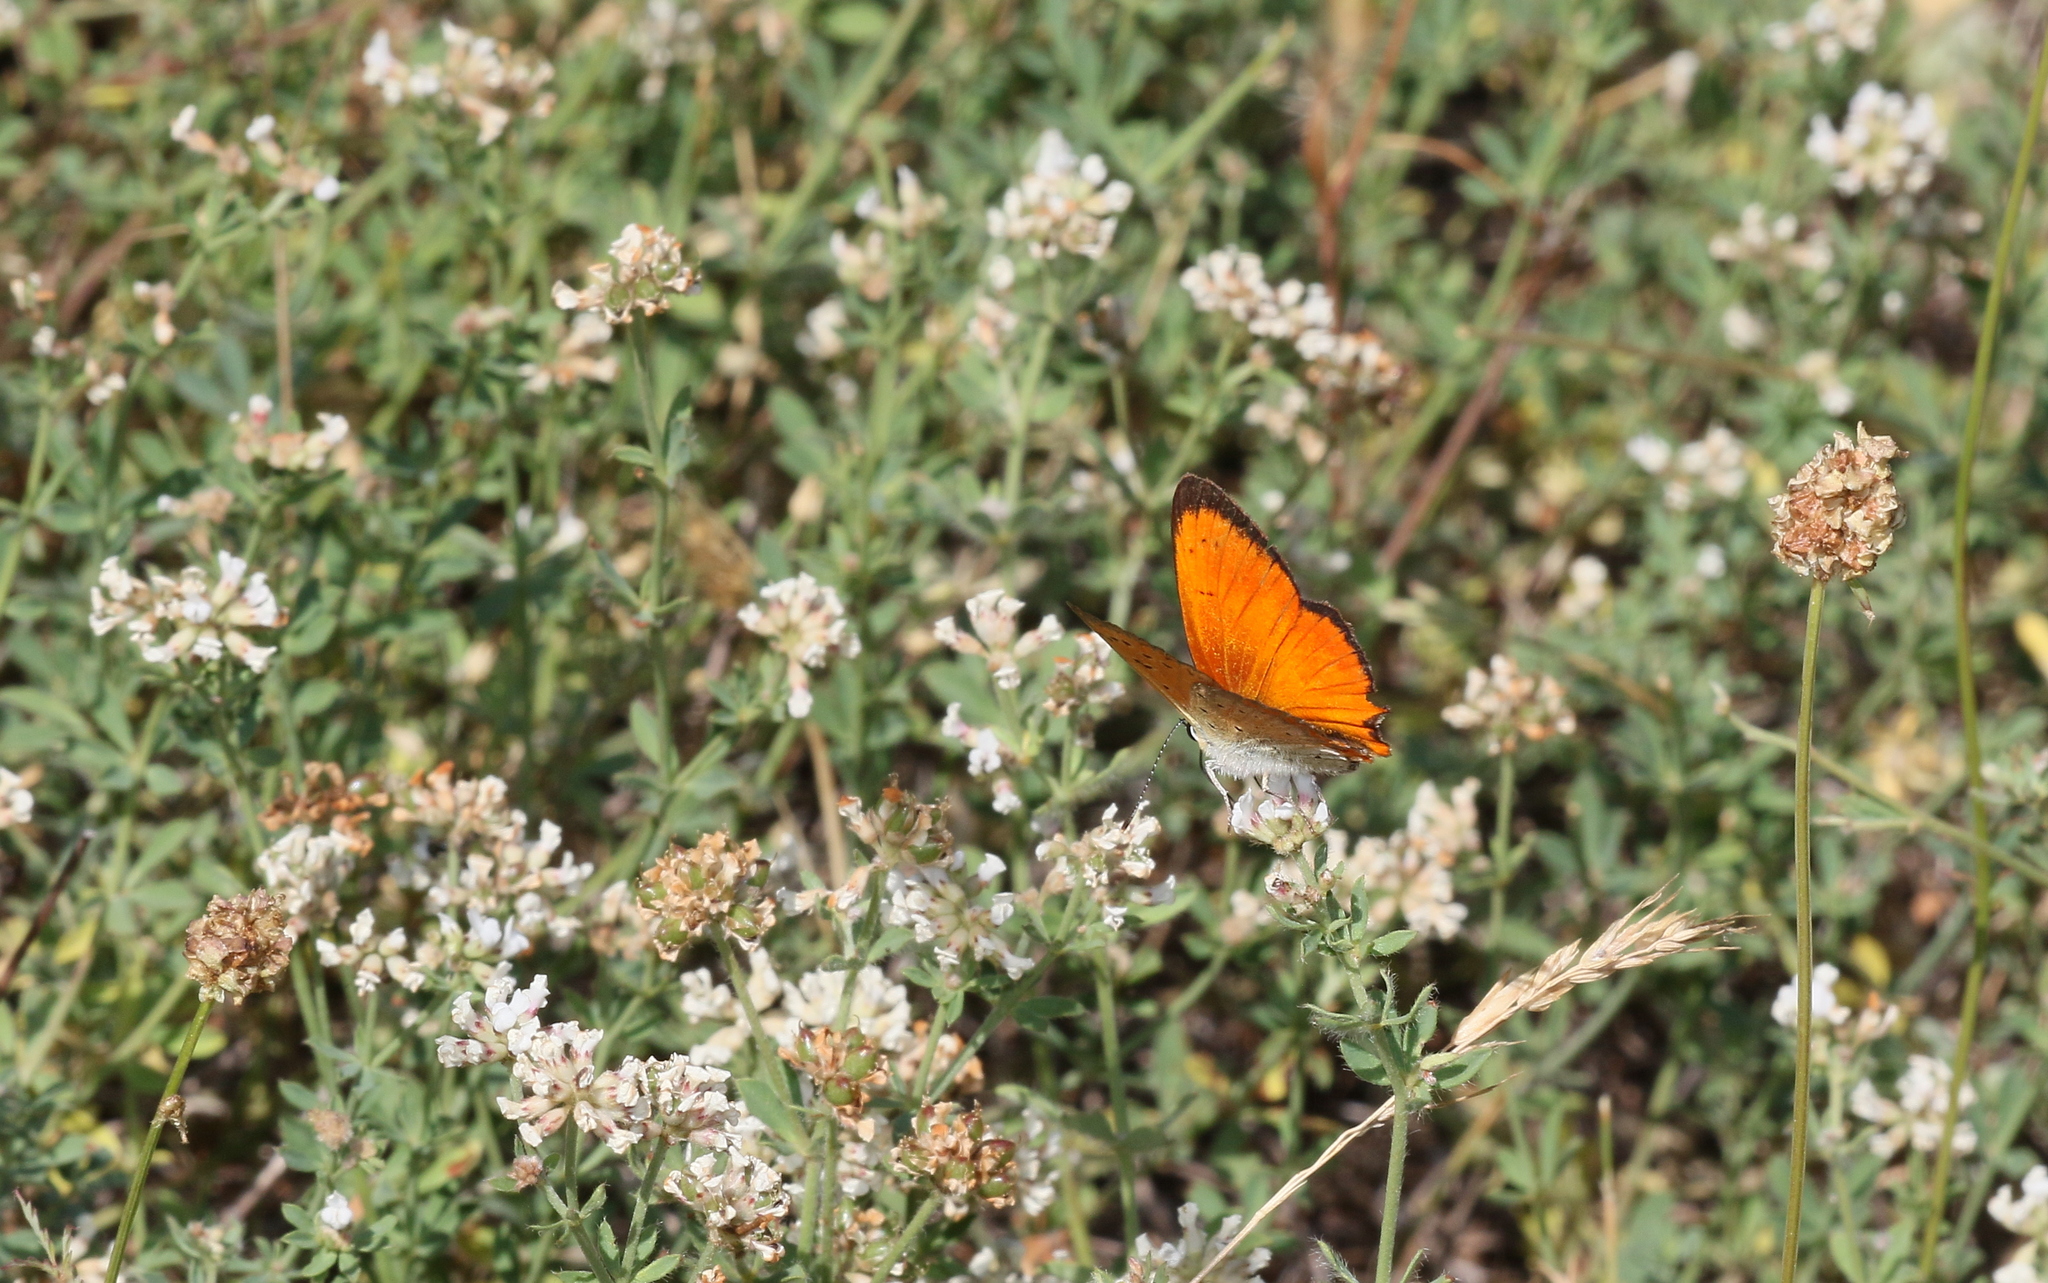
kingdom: Animalia
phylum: Arthropoda
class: Insecta
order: Lepidoptera
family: Lycaenidae
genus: Polyommatus
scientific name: Polyommatus ottomanus
